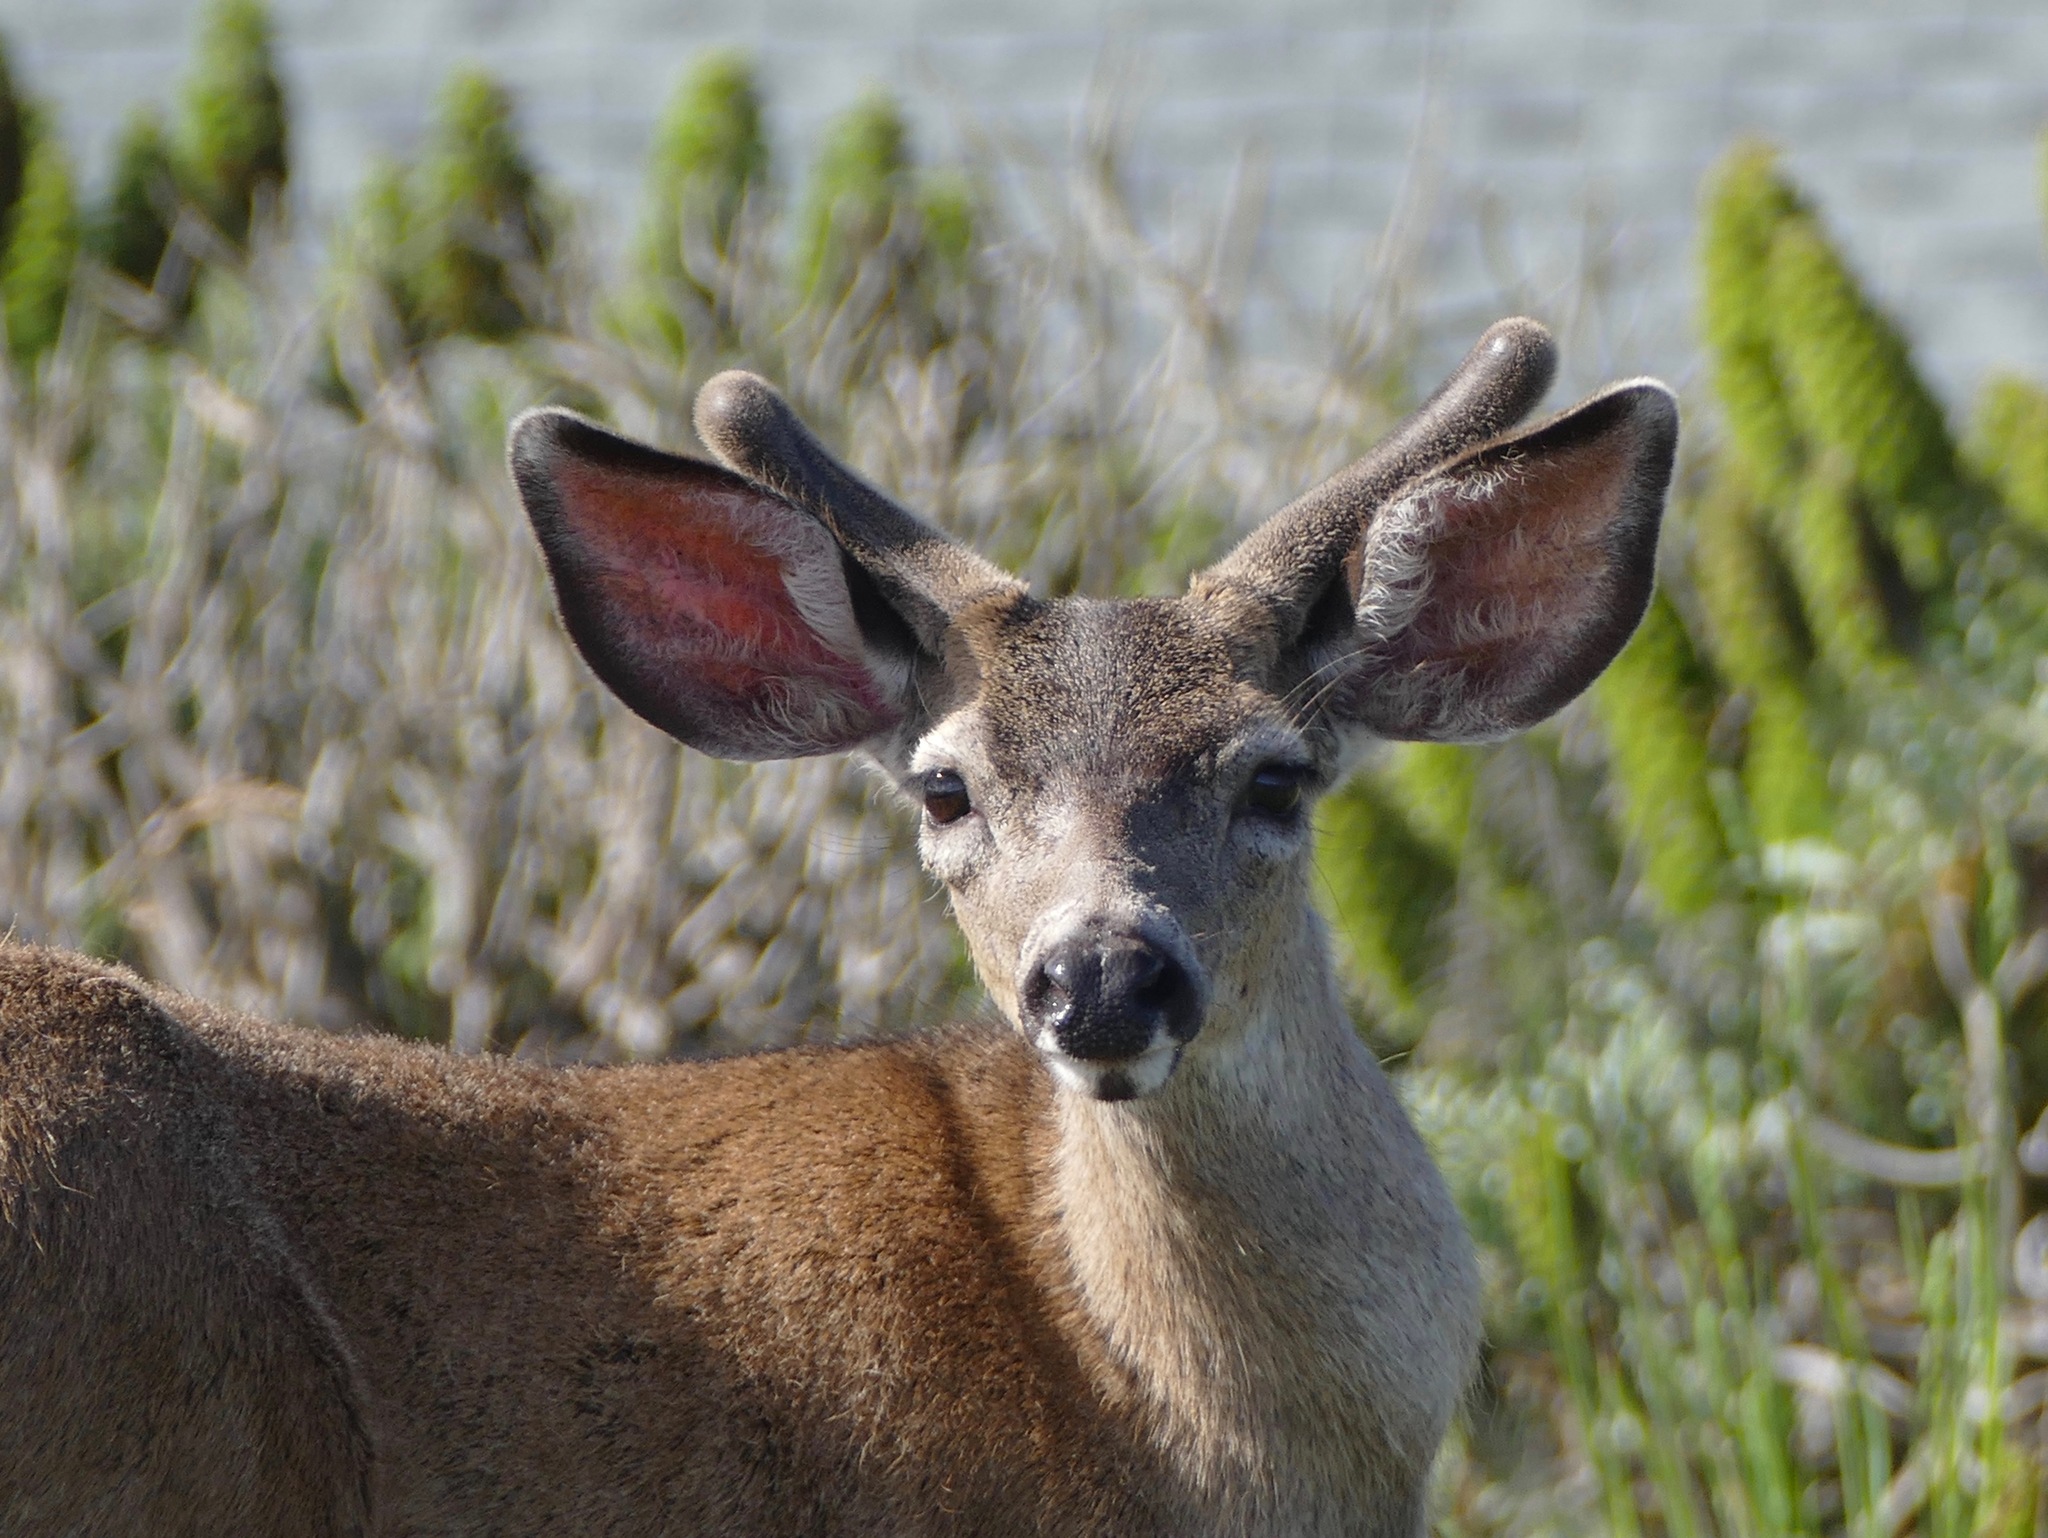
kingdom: Animalia
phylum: Chordata
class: Mammalia
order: Artiodactyla
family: Cervidae
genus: Odocoileus
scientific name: Odocoileus hemionus
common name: Mule deer
